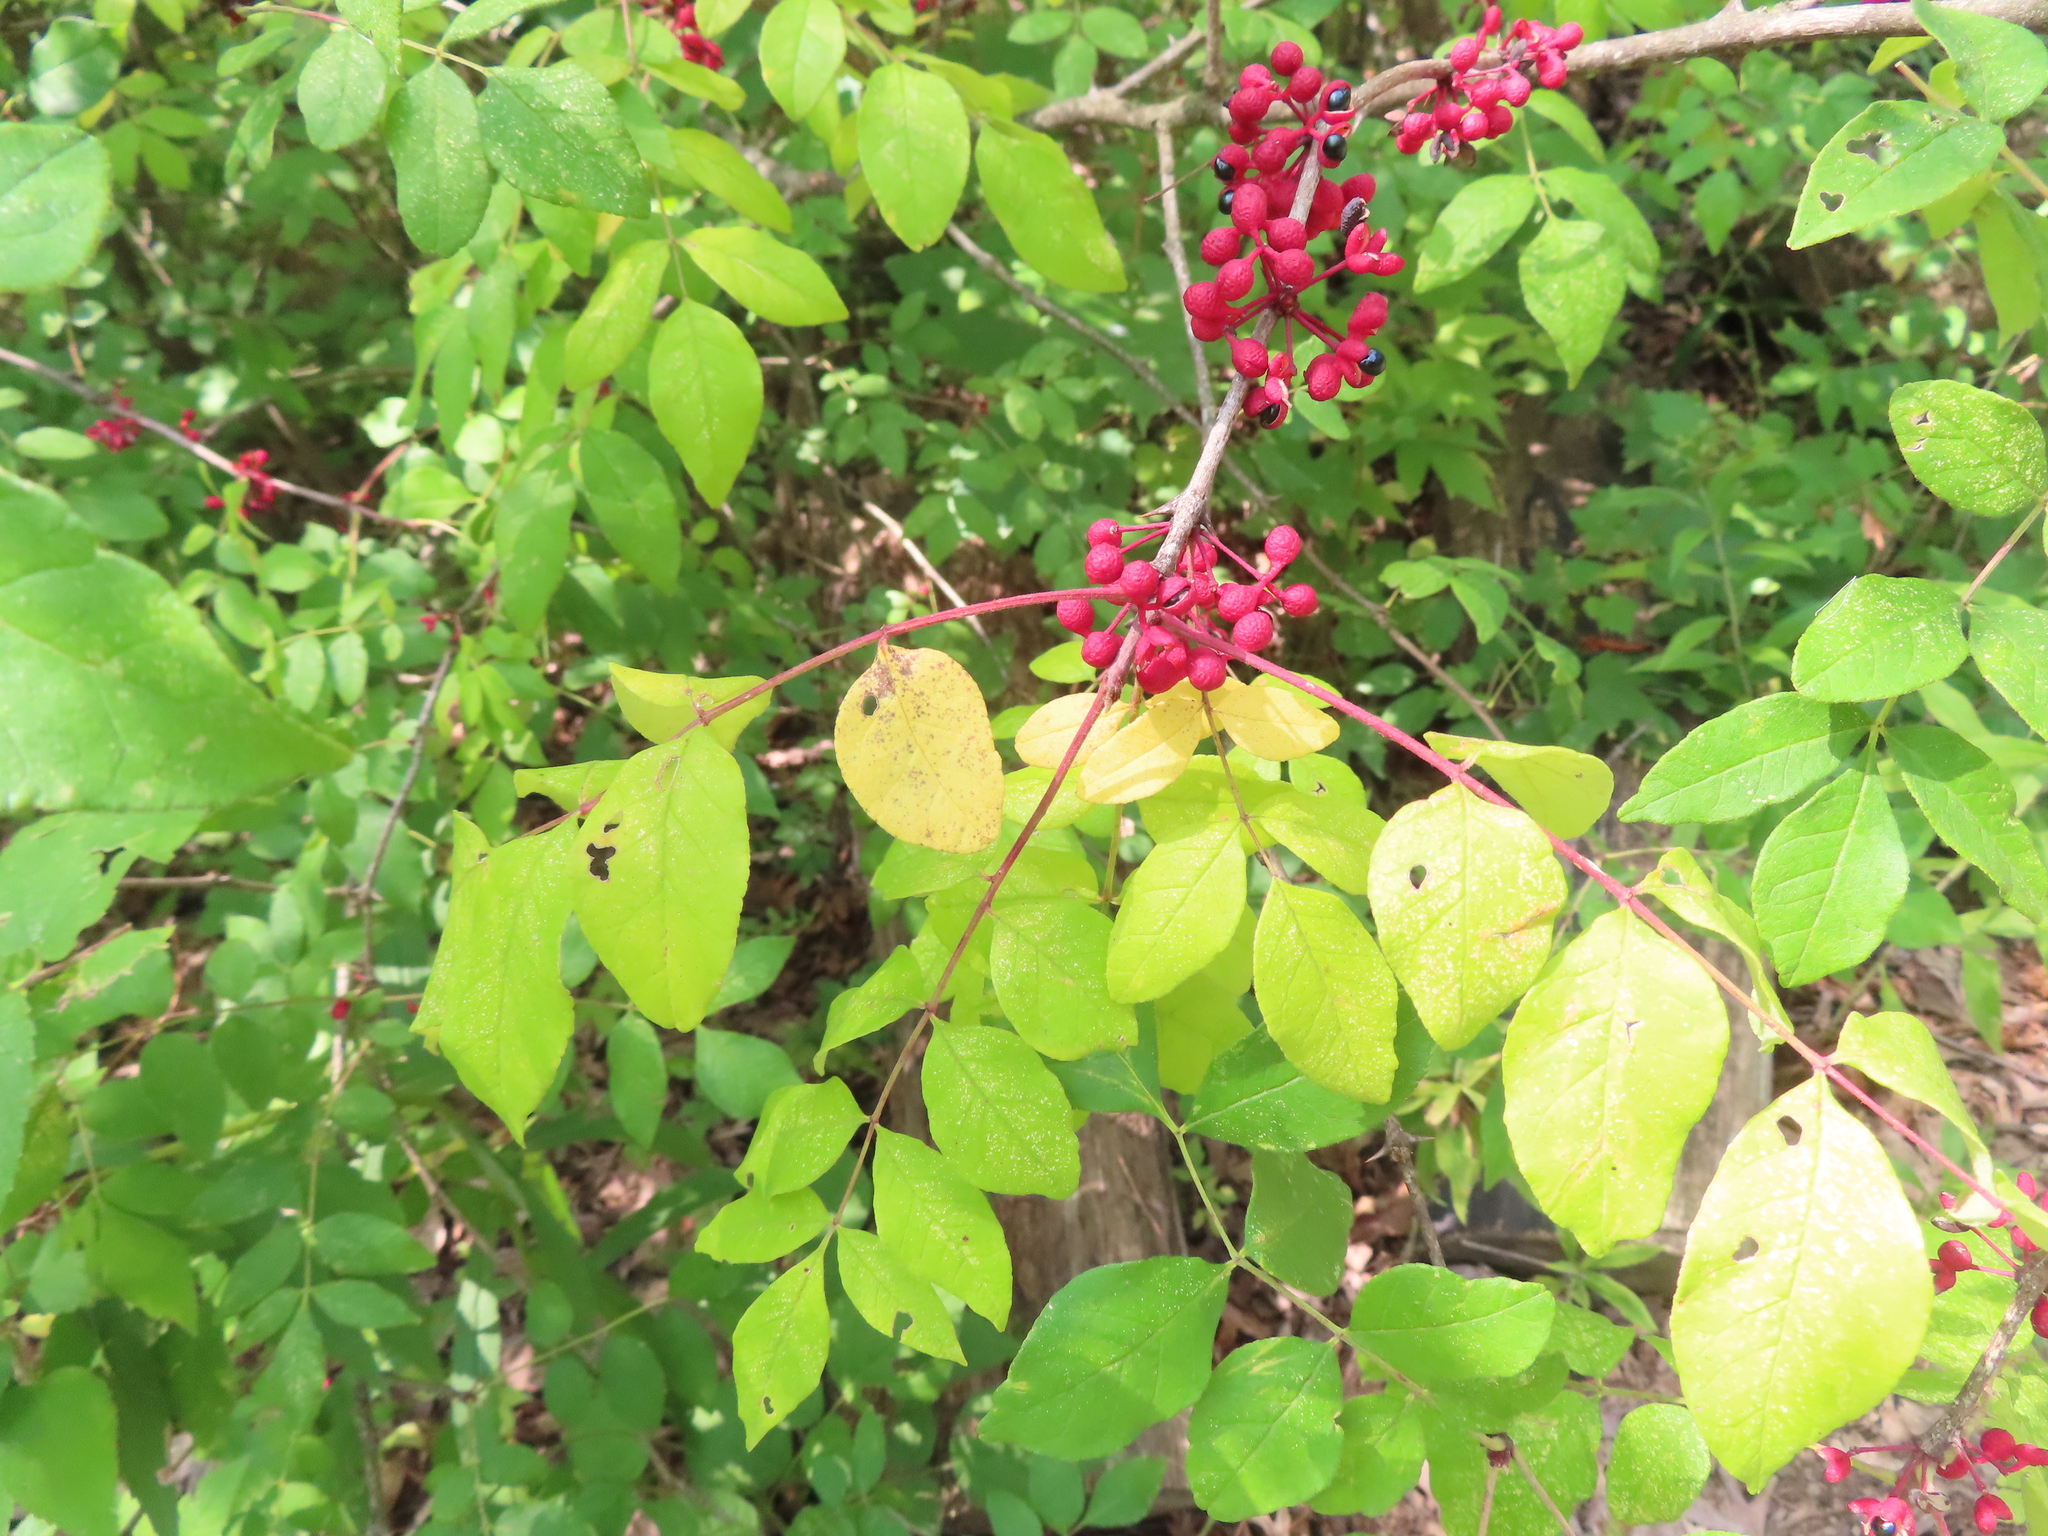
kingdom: Plantae
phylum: Tracheophyta
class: Magnoliopsida
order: Sapindales
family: Rutaceae
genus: Zanthoxylum
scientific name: Zanthoxylum americanum
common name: Northern prickly-ash
